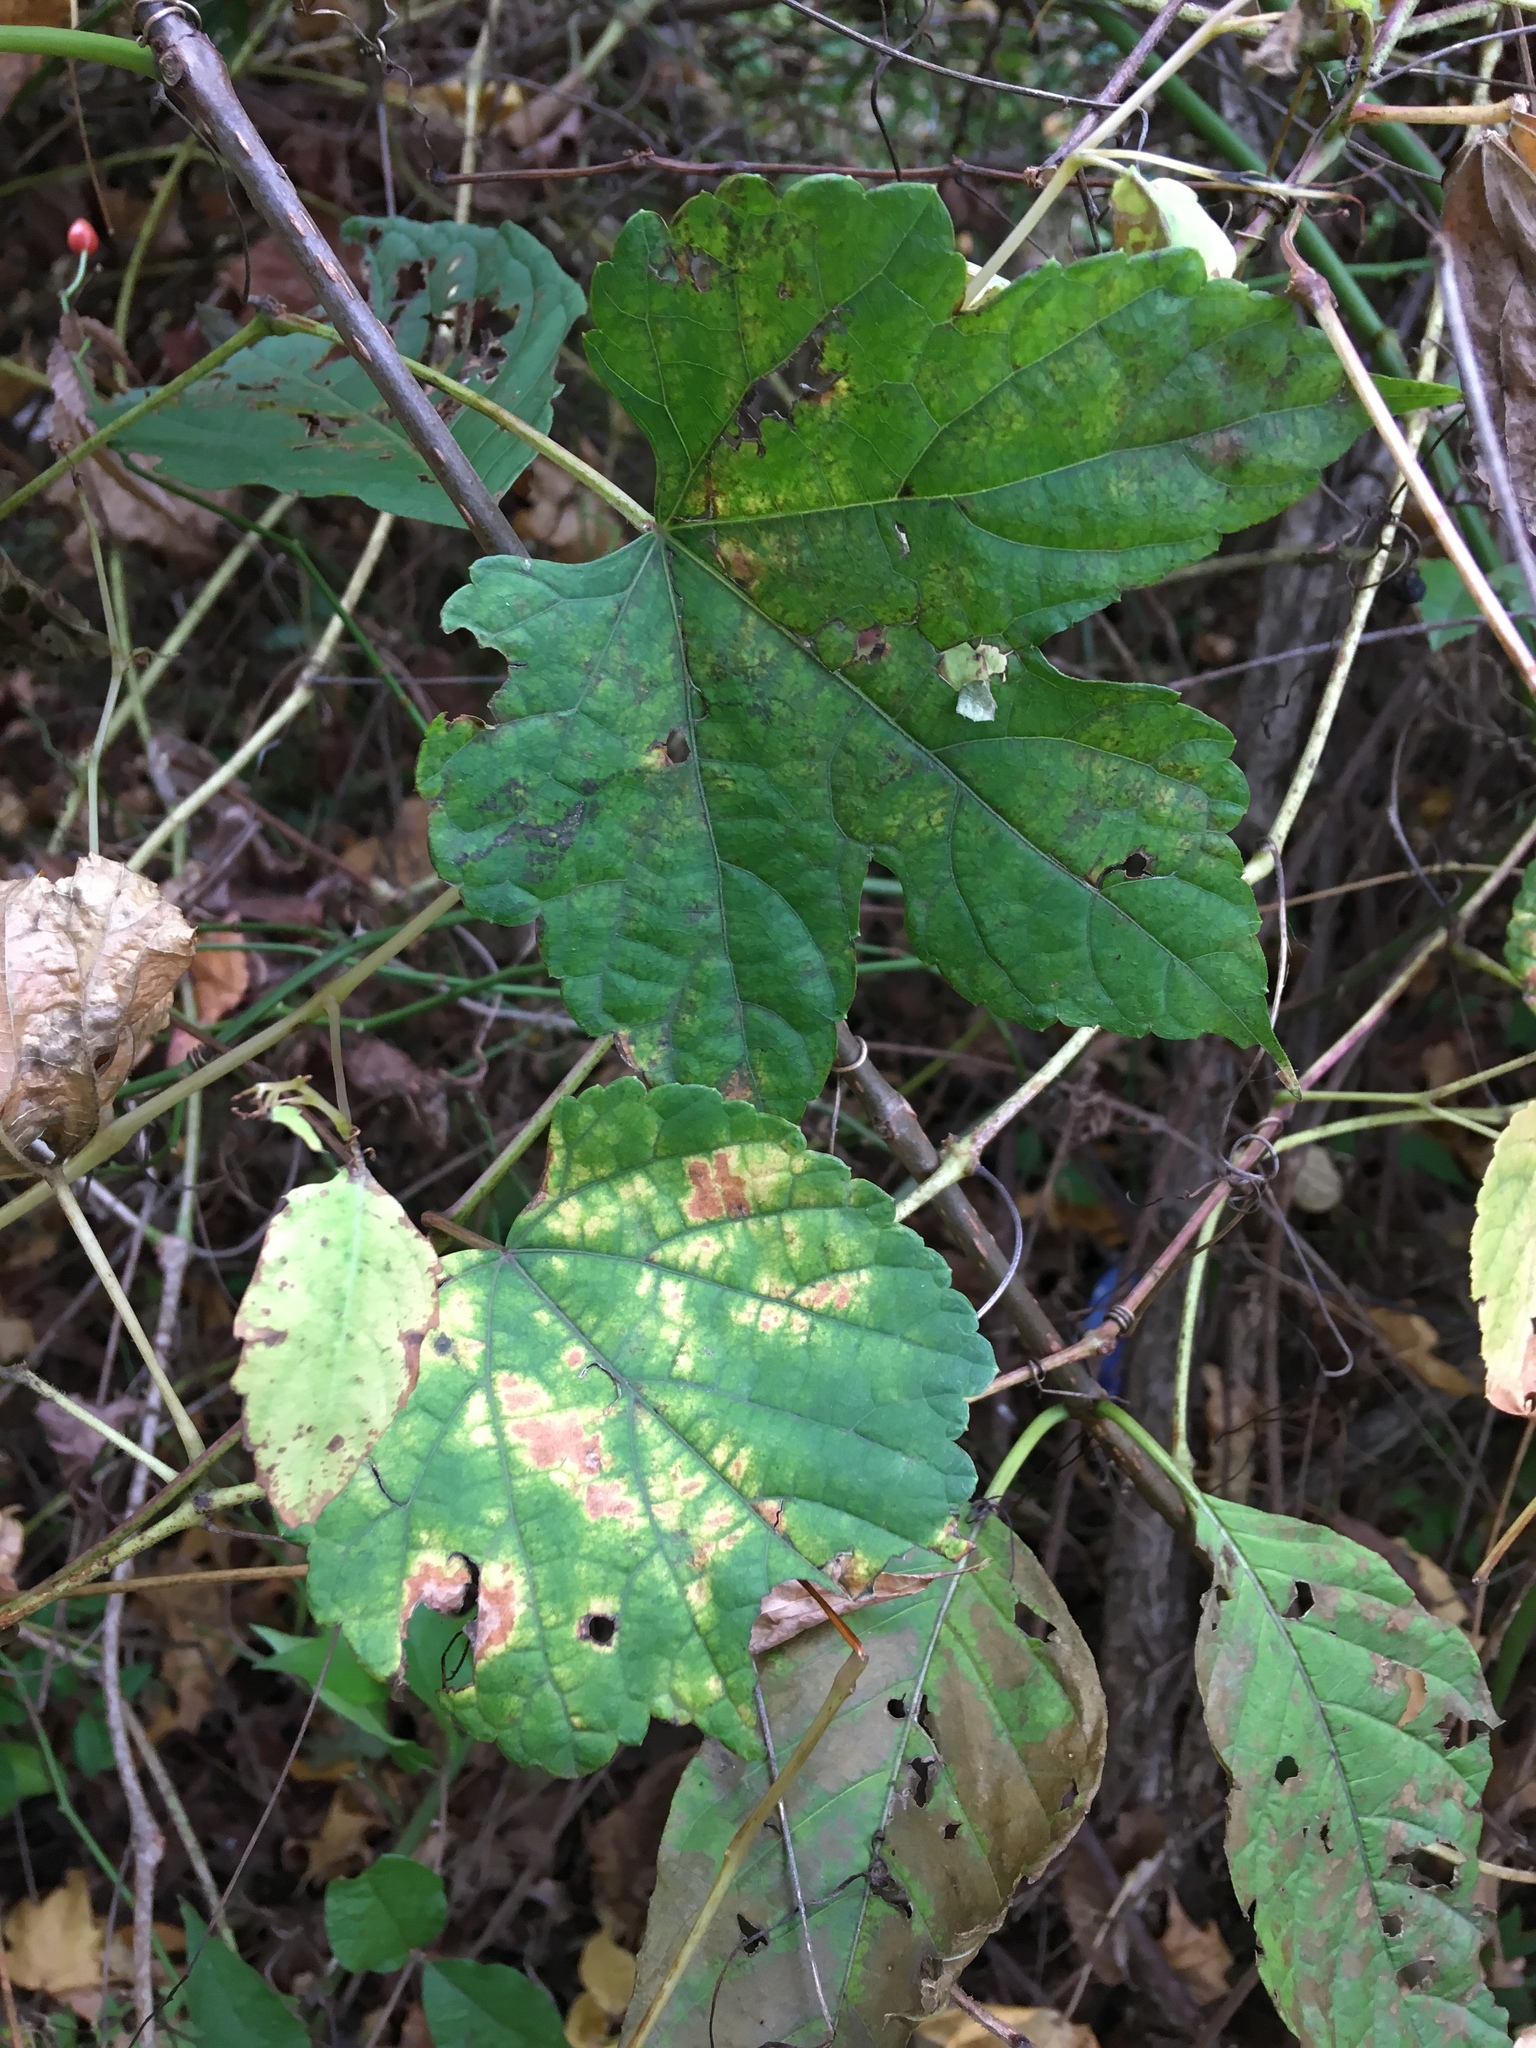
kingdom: Plantae
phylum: Tracheophyta
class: Magnoliopsida
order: Vitales
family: Vitaceae
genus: Ampelopsis
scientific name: Ampelopsis glandulosa
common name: Amur peppervine
